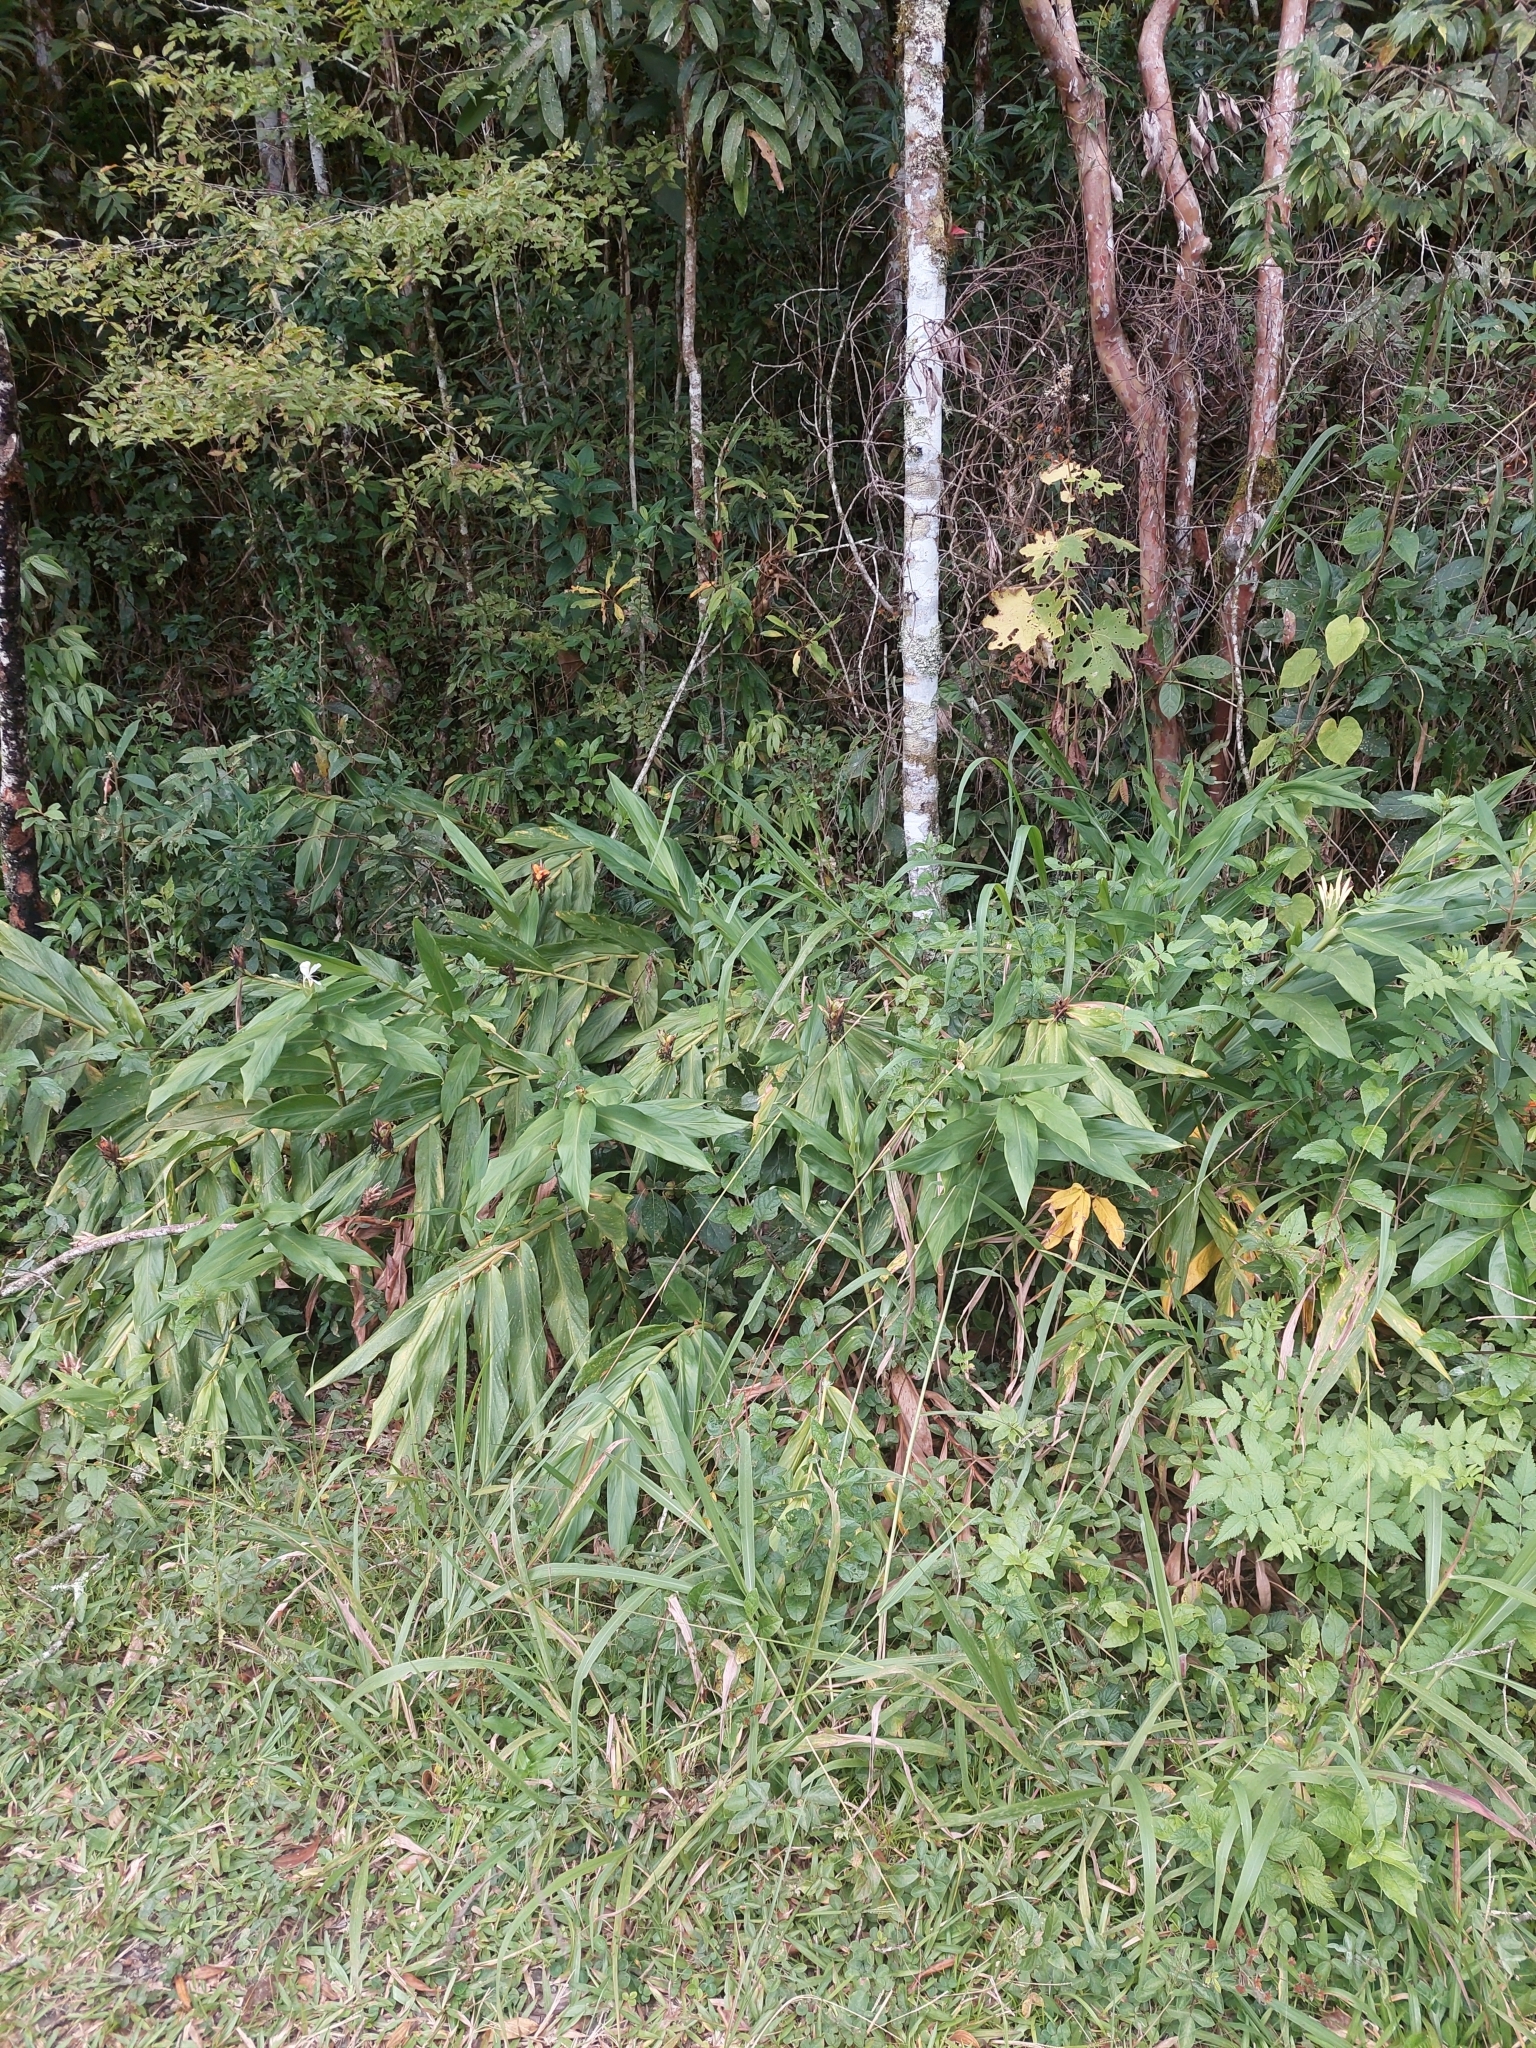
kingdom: Plantae
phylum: Tracheophyta
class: Liliopsida
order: Zingiberales
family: Zingiberaceae
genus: Hedychium
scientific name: Hedychium coronarium
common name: White garland-lily
